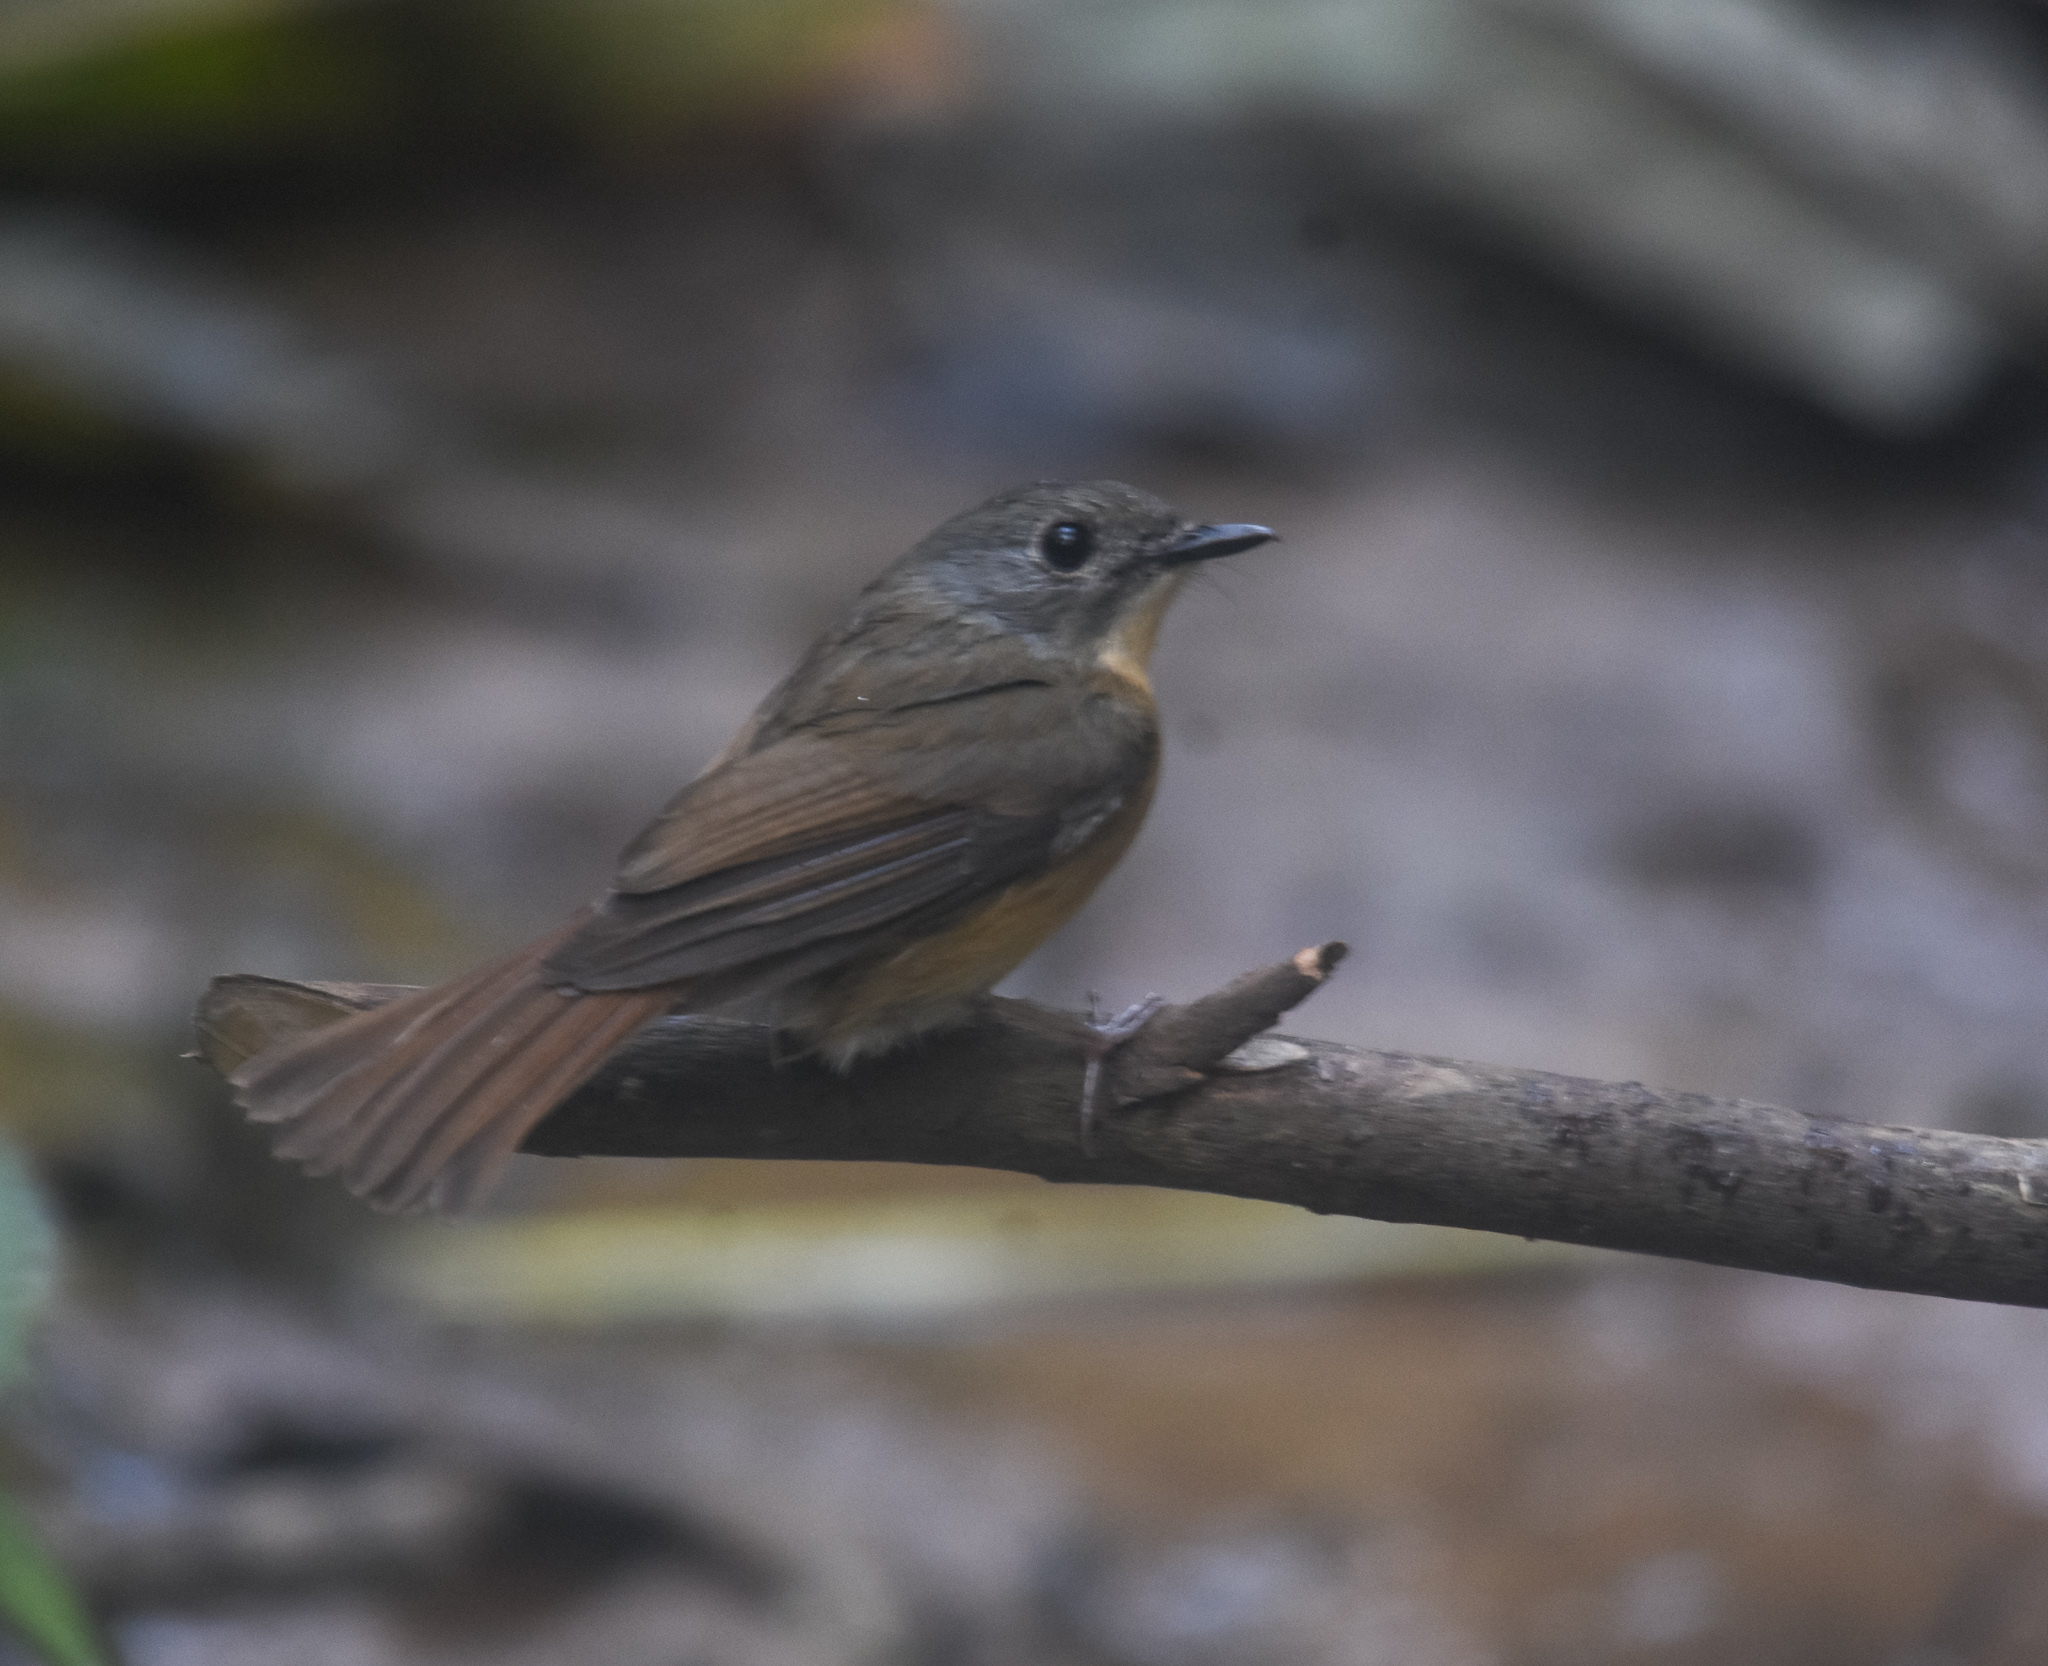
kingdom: Animalia
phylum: Chordata
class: Aves
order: Passeriformes
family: Muscicapidae
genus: Cyornis
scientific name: Cyornis poliogenys
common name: Pale-chinned blue flycatcher
